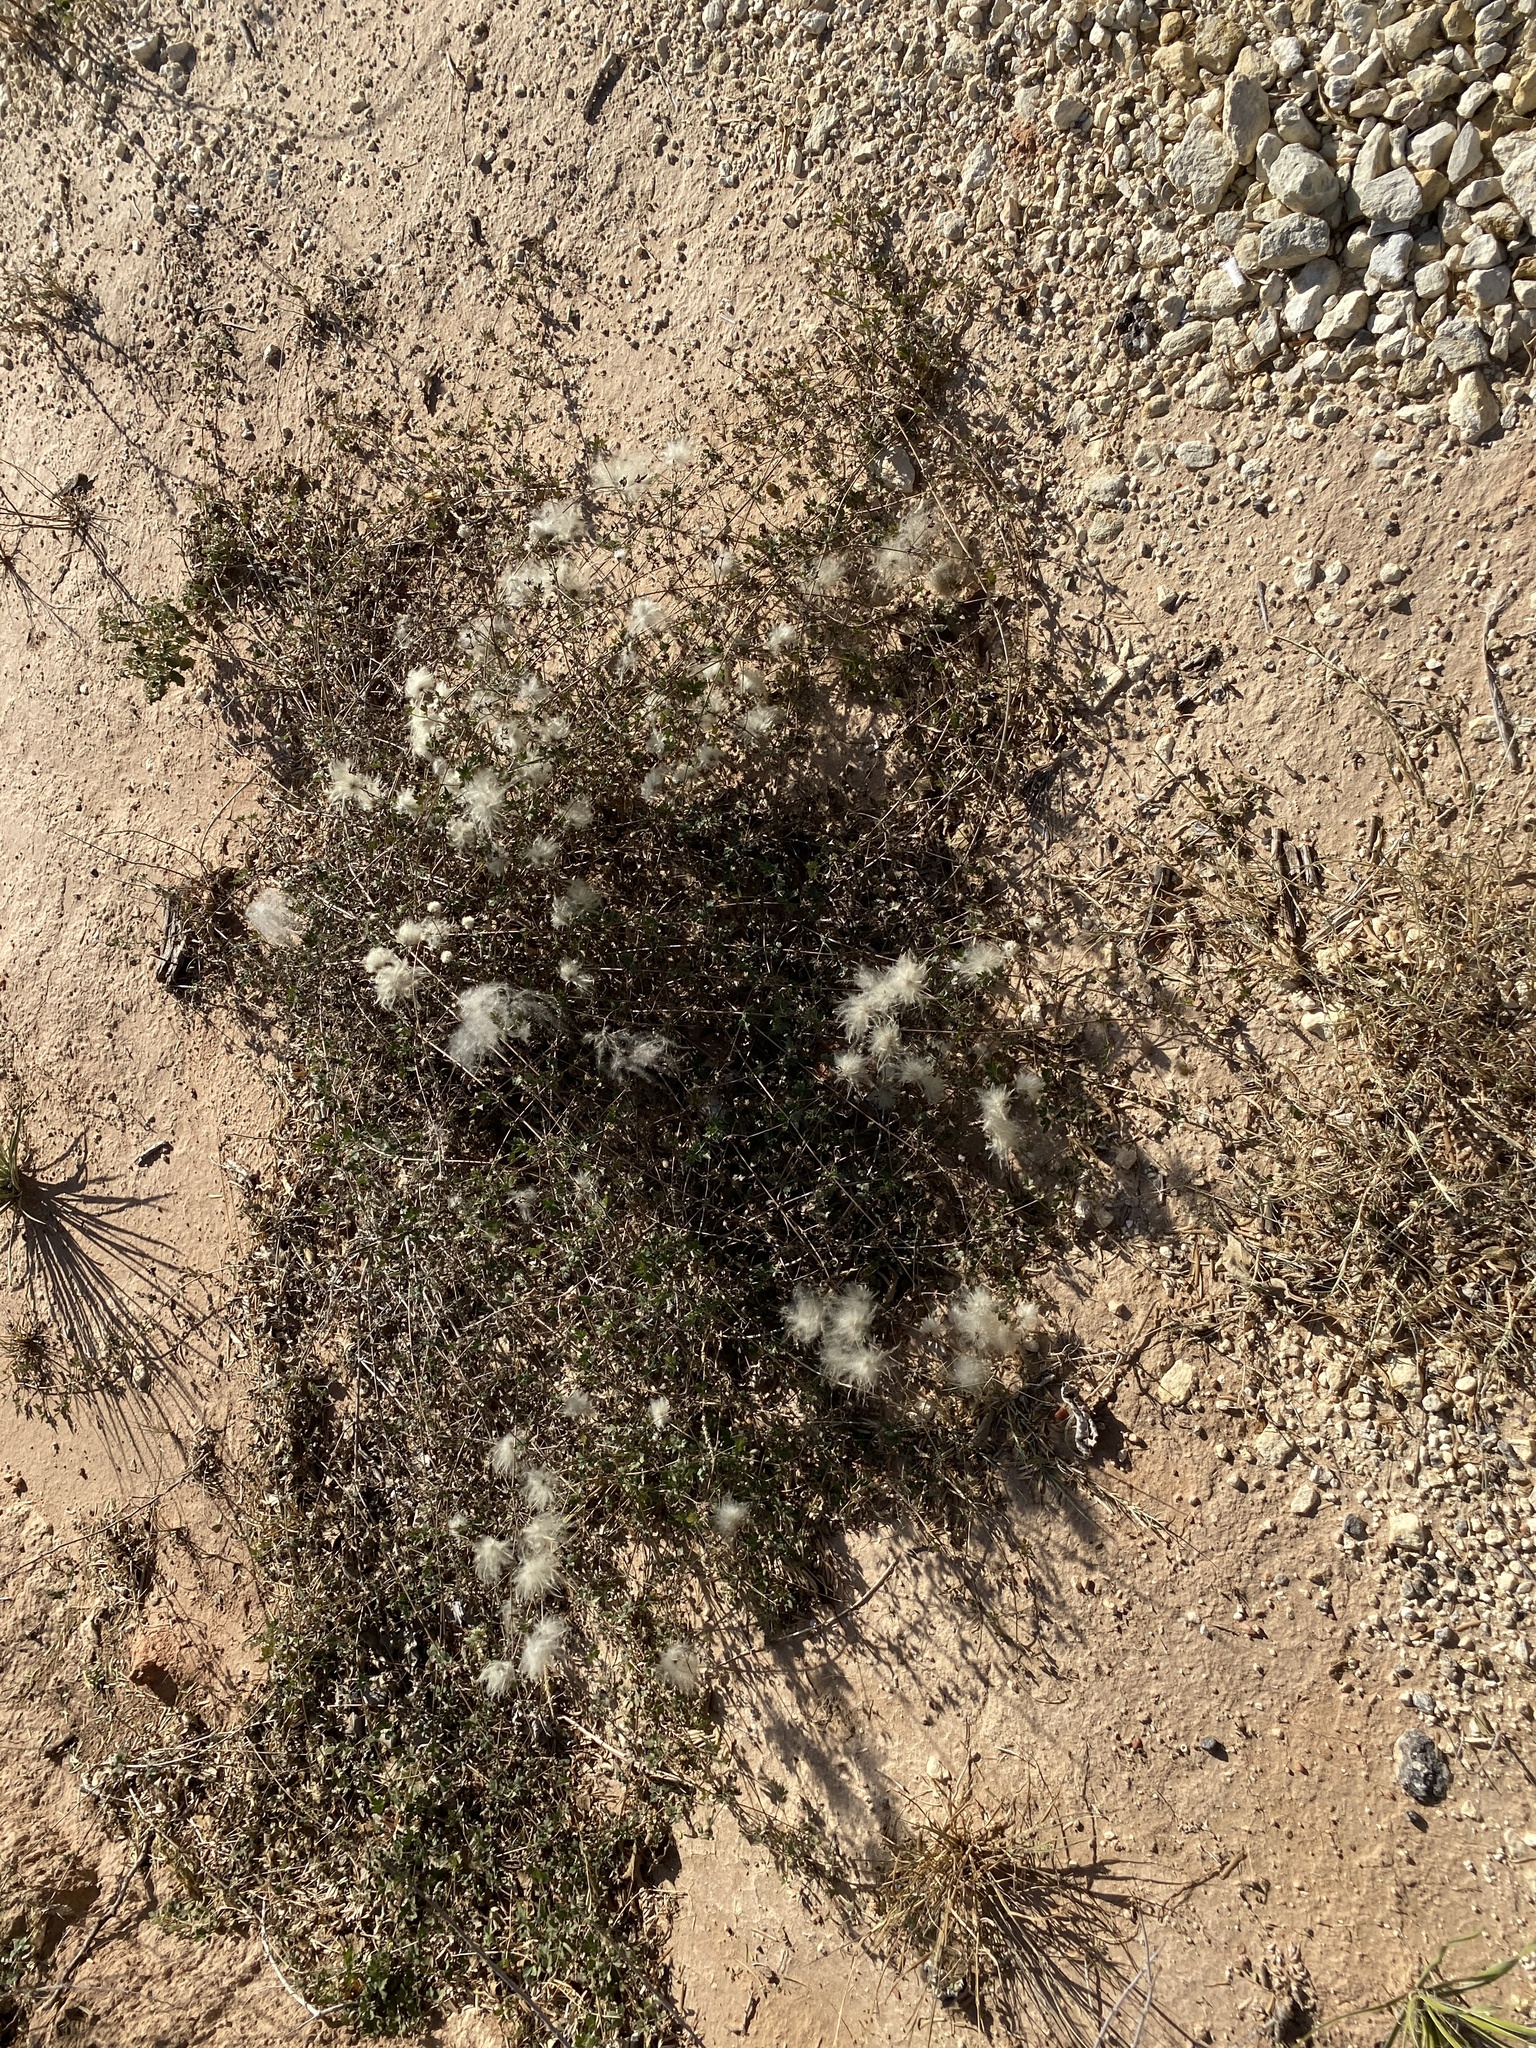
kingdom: Plantae
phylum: Tracheophyta
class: Magnoliopsida
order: Ranunculales
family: Ranunculaceae
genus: Clematis
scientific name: Clematis drummondii
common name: Texas virgin's bower
